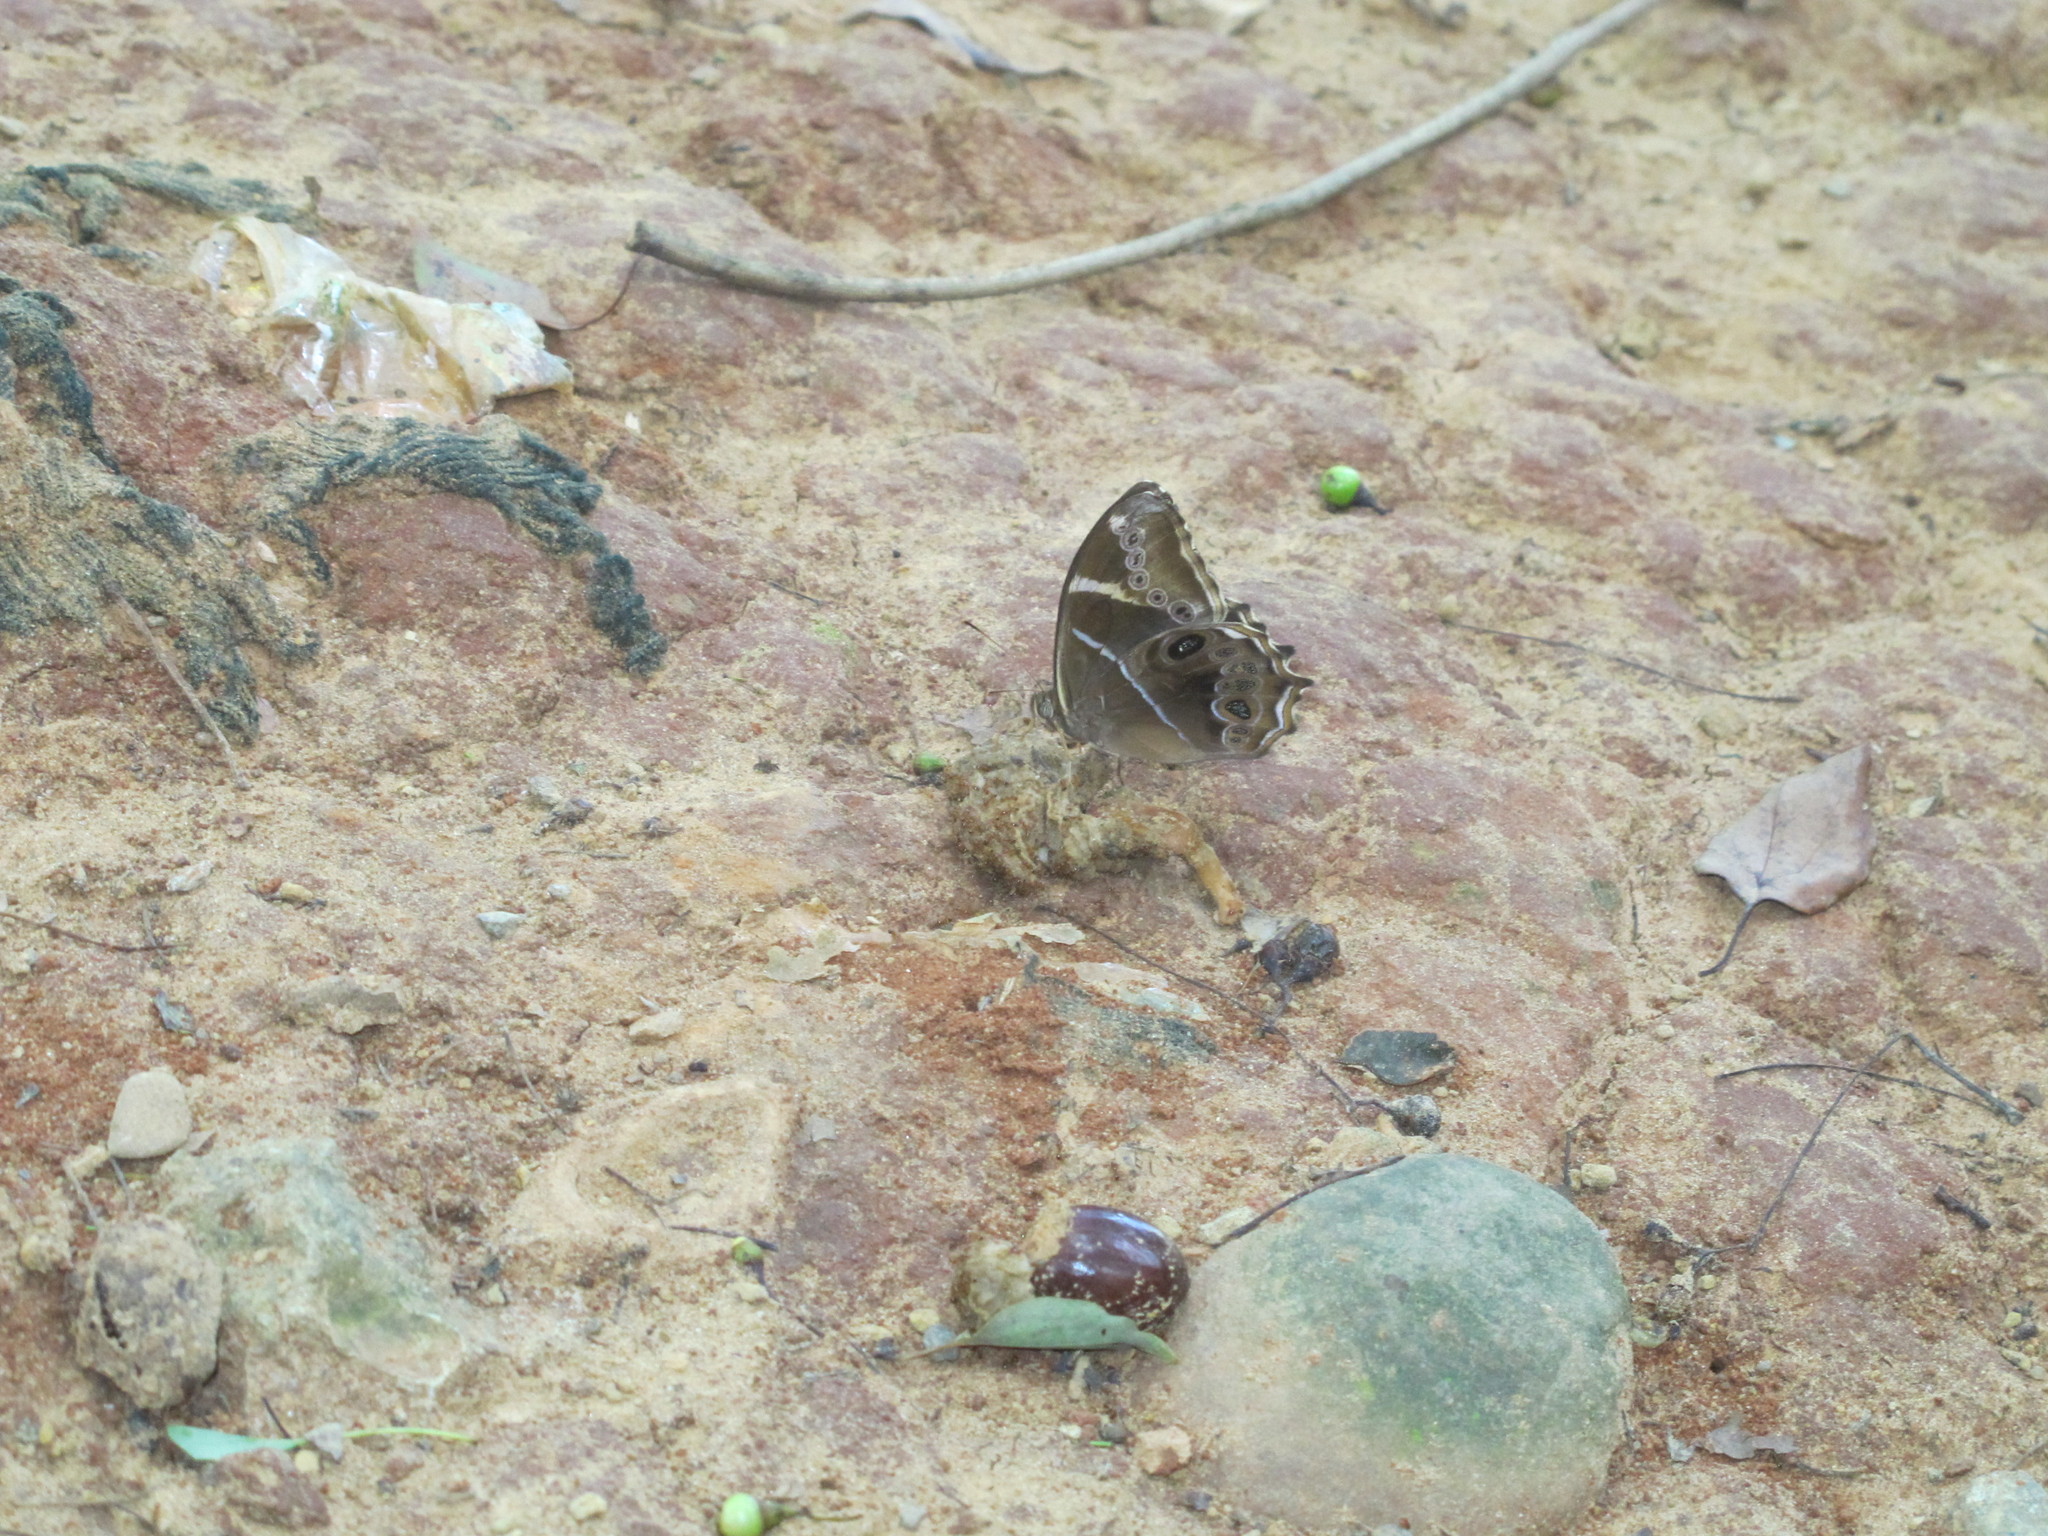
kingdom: Animalia
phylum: Arthropoda
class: Insecta
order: Lepidoptera
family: Nymphalidae
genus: Lethe
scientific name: Lethe europa
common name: Bamboo treebrown
